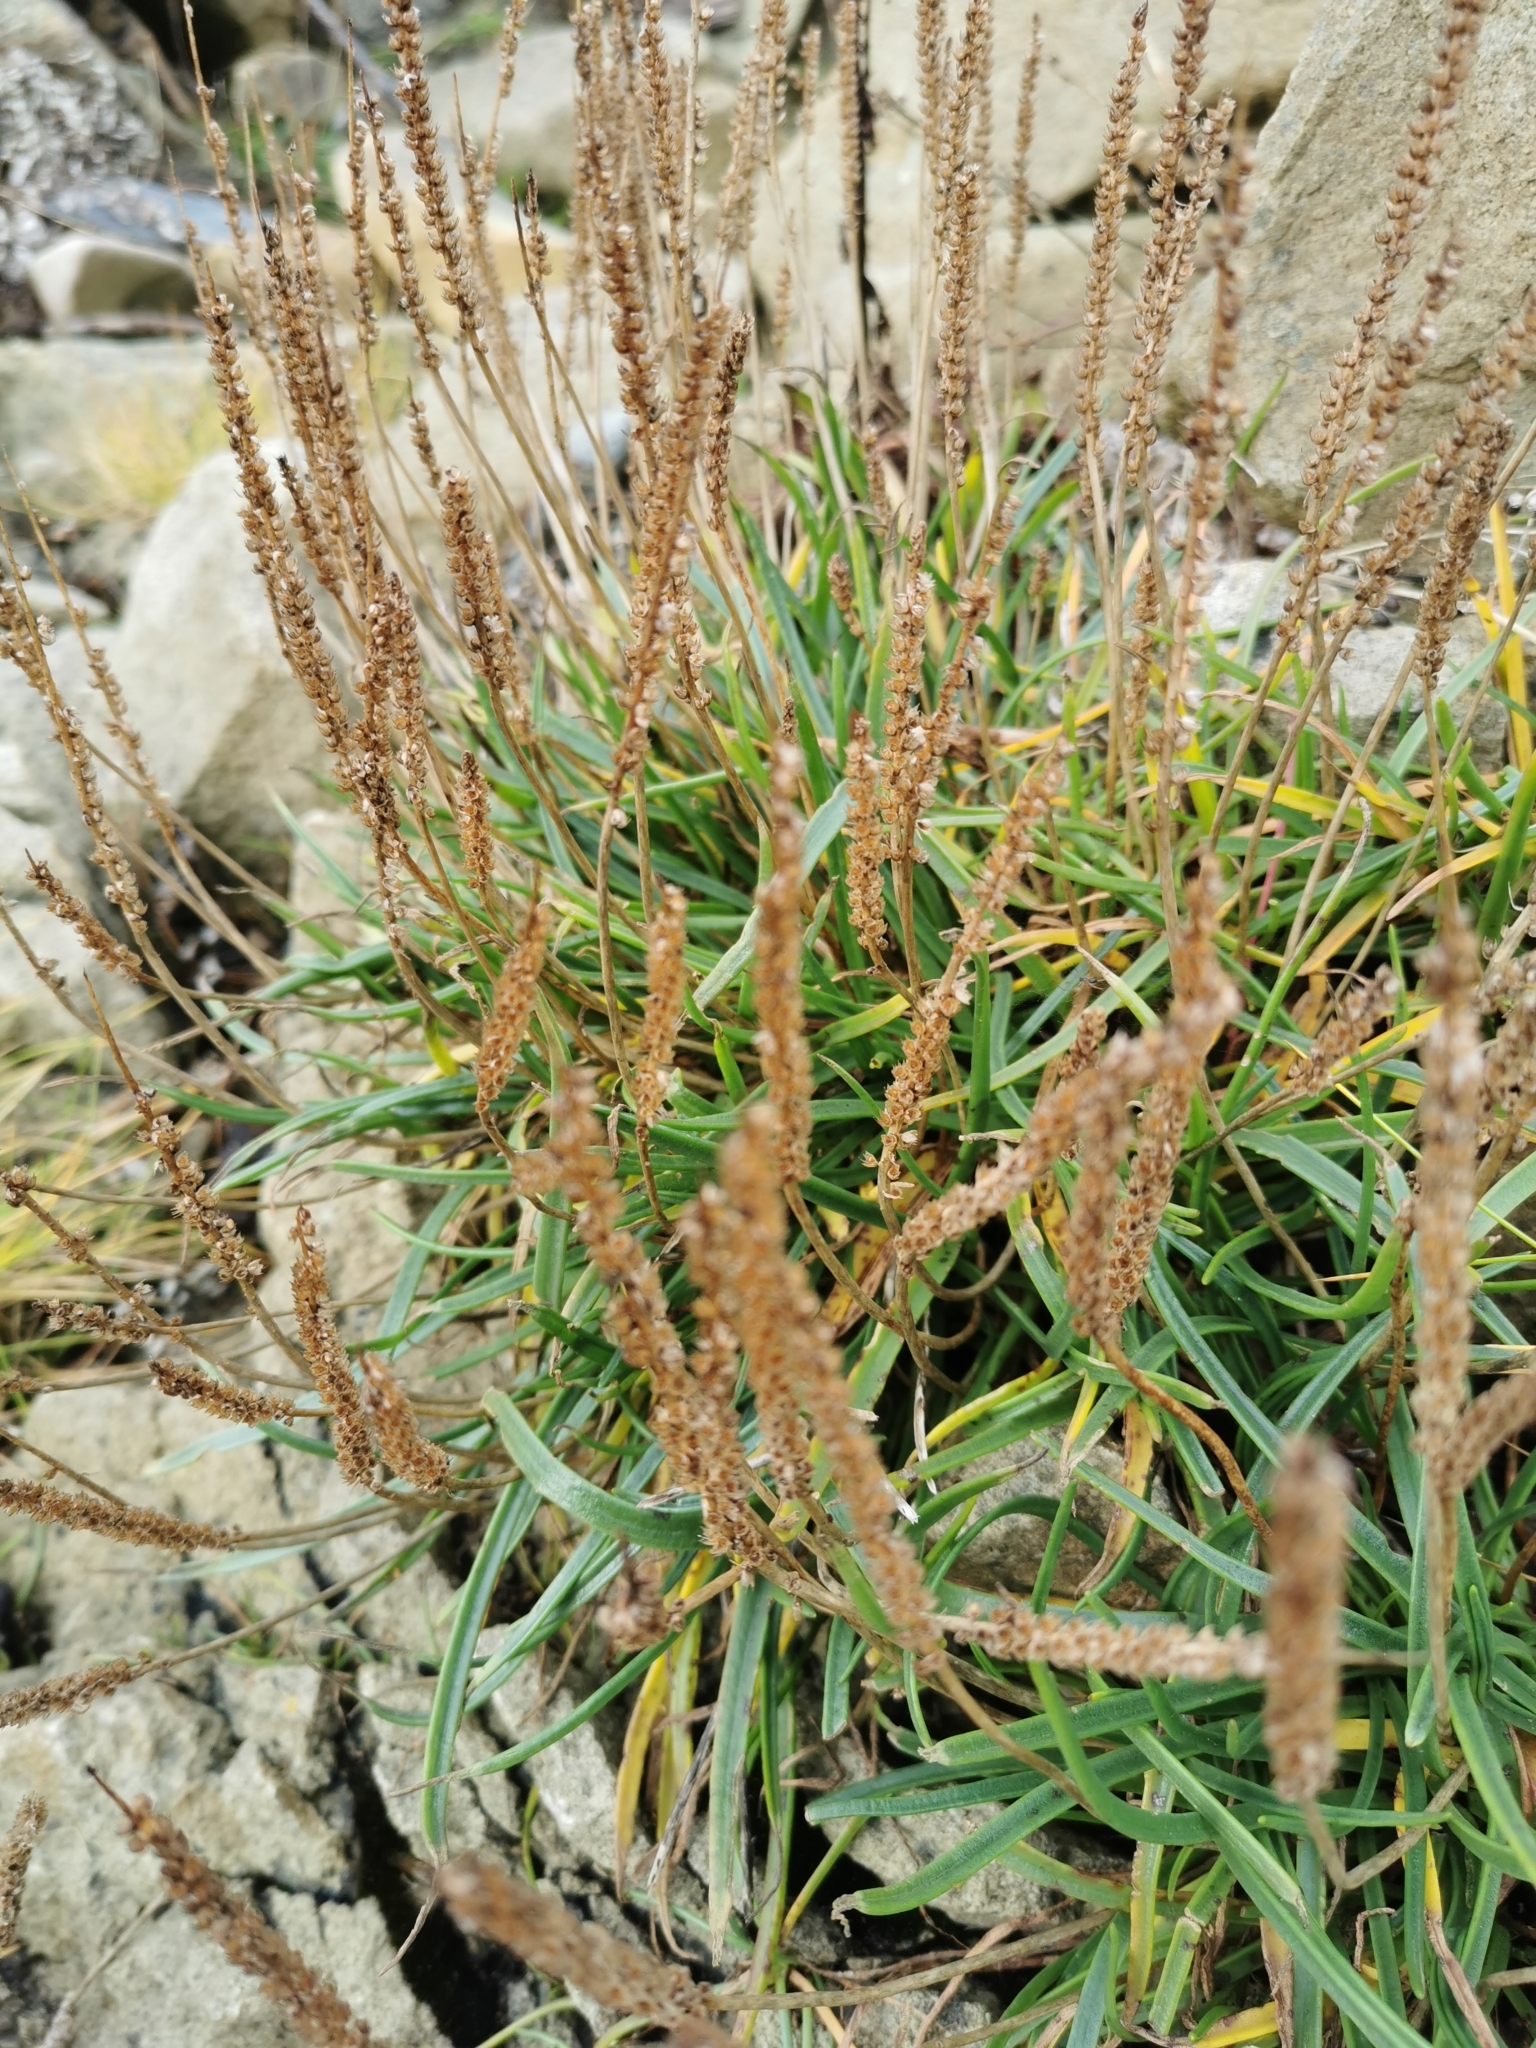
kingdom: Plantae
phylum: Tracheophyta
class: Magnoliopsida
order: Lamiales
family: Plantaginaceae
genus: Plantago
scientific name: Plantago maritima
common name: Sea plantain
